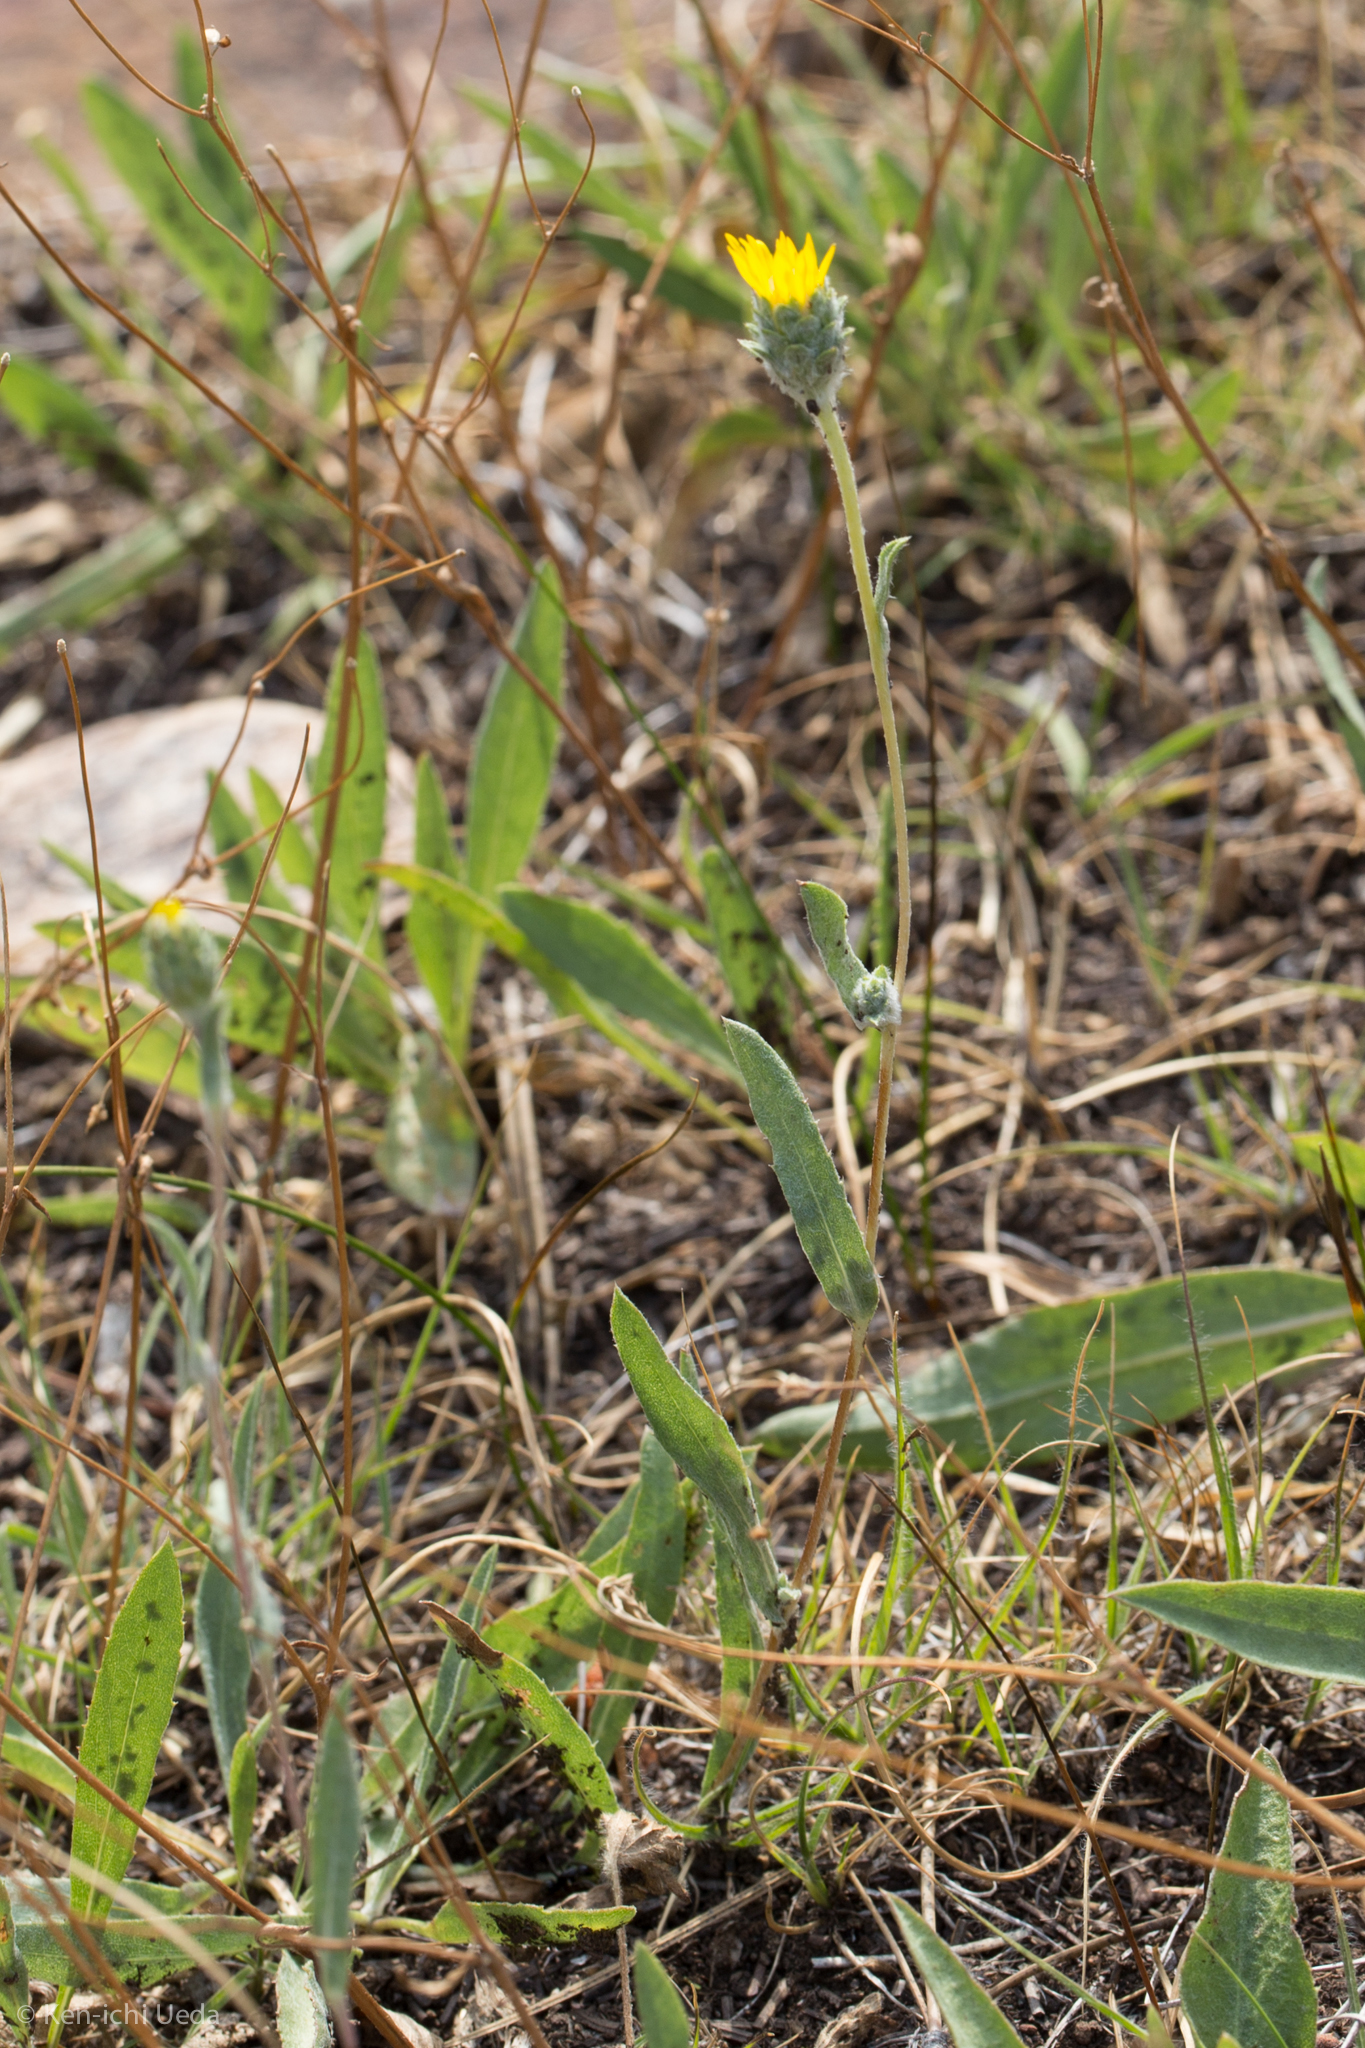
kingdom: Plantae
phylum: Tracheophyta
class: Magnoliopsida
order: Asterales
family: Asteraceae
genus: Pyrrocoma
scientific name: Pyrrocoma racemosa
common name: Clustered goldenweed
